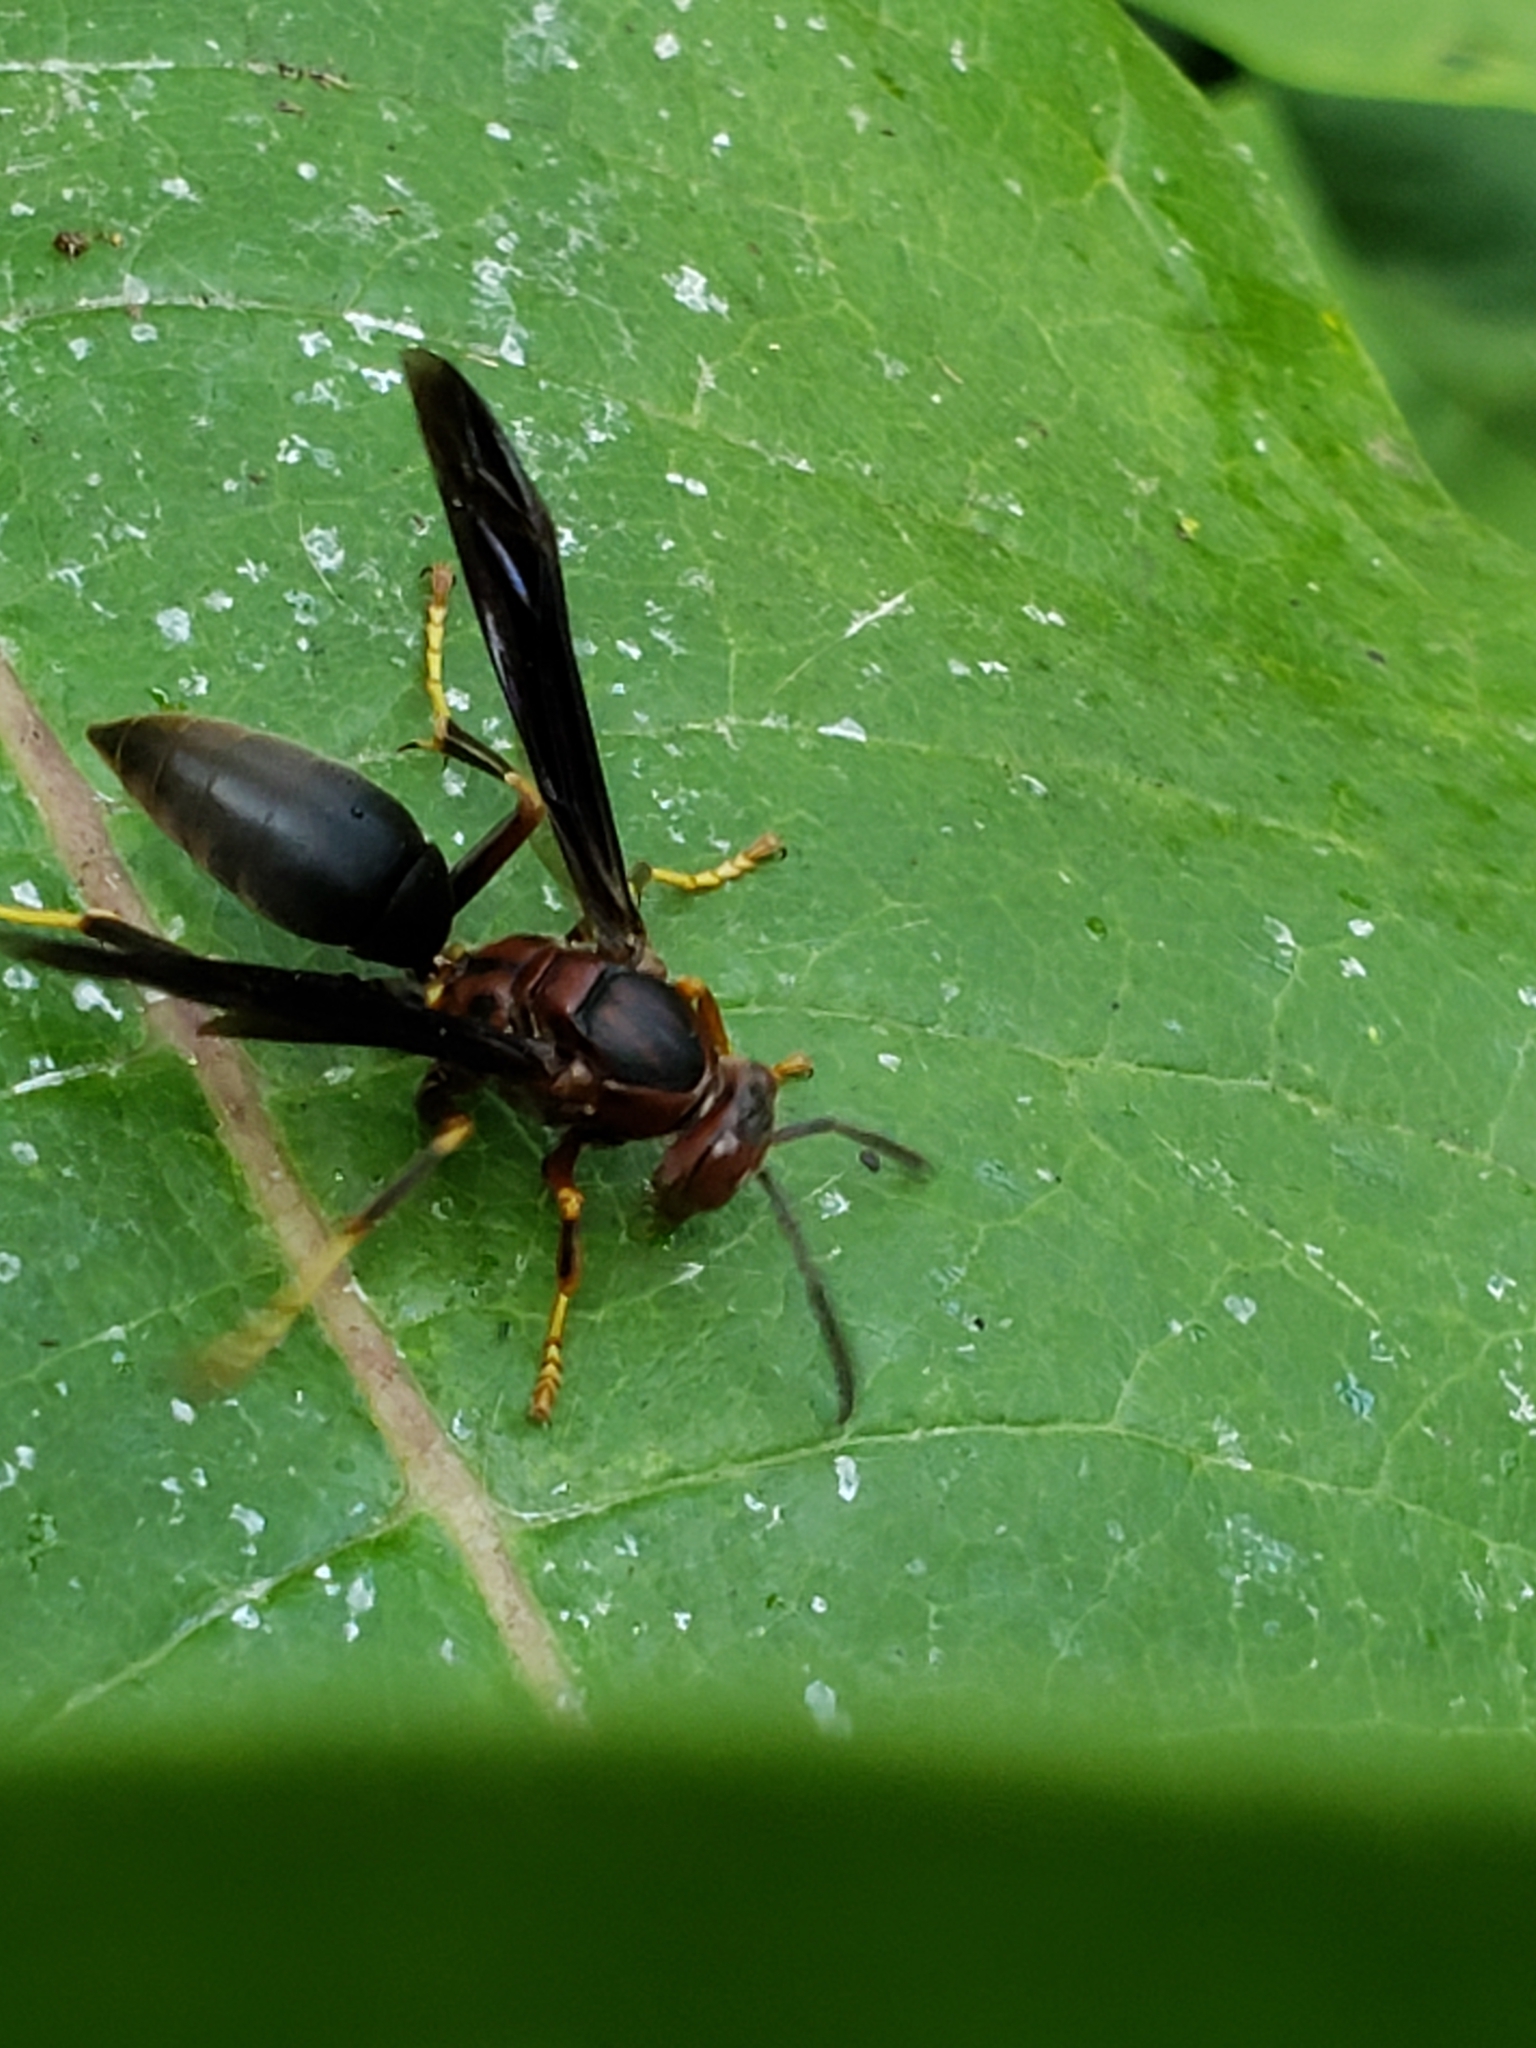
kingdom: Animalia
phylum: Arthropoda
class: Insecta
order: Hymenoptera
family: Eumenidae
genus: Polistes
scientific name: Polistes metricus
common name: Metric paper wasp
